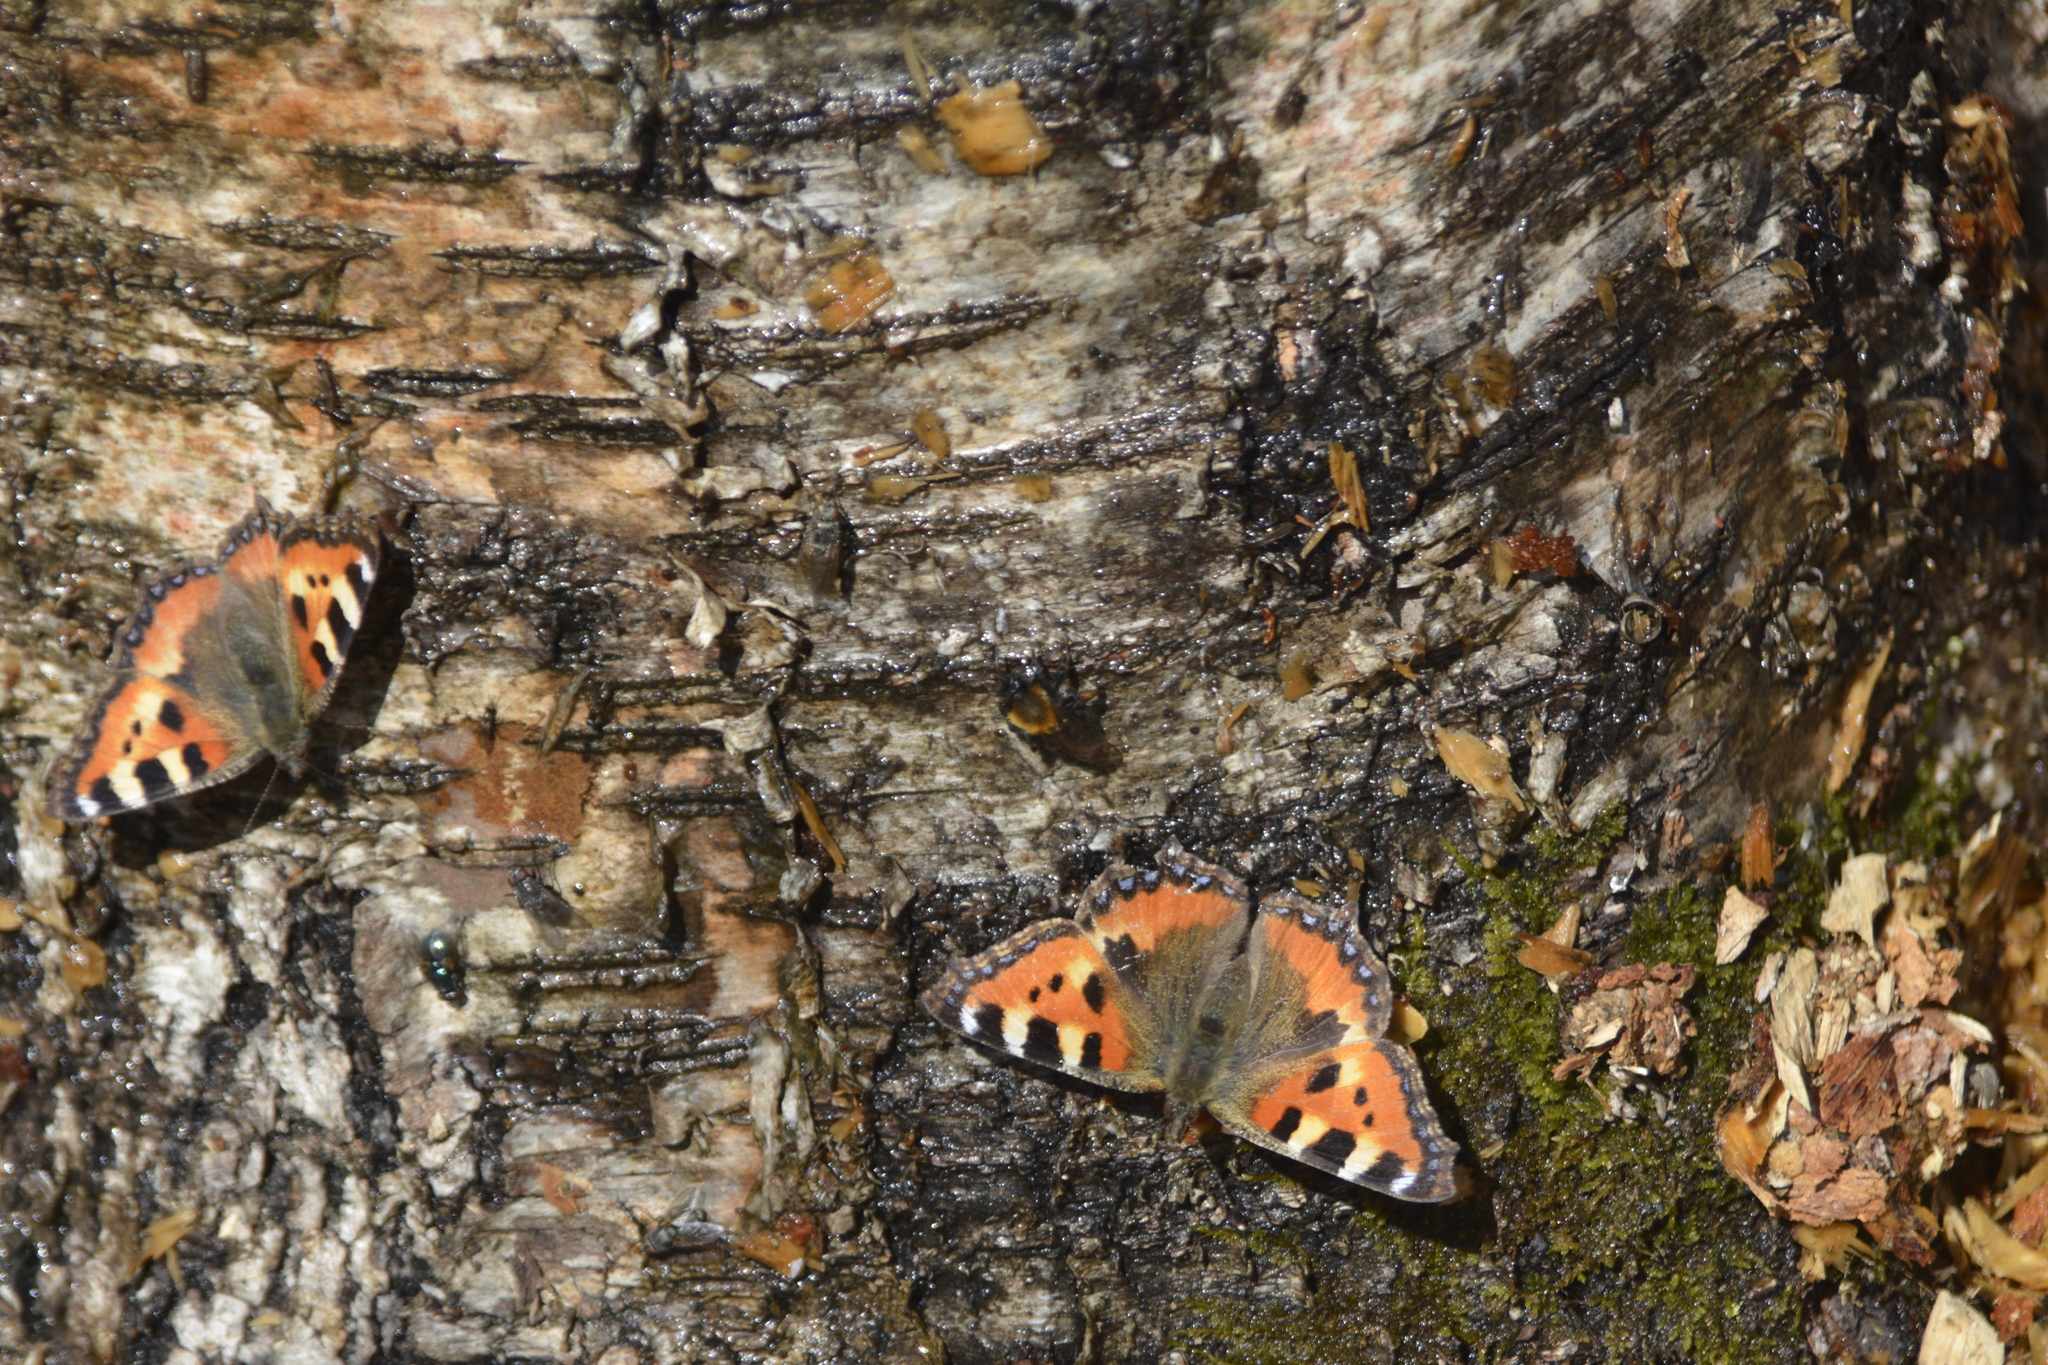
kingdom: Animalia
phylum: Arthropoda
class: Insecta
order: Lepidoptera
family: Nymphalidae
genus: Aglais
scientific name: Aglais urticae
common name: Small tortoiseshell
